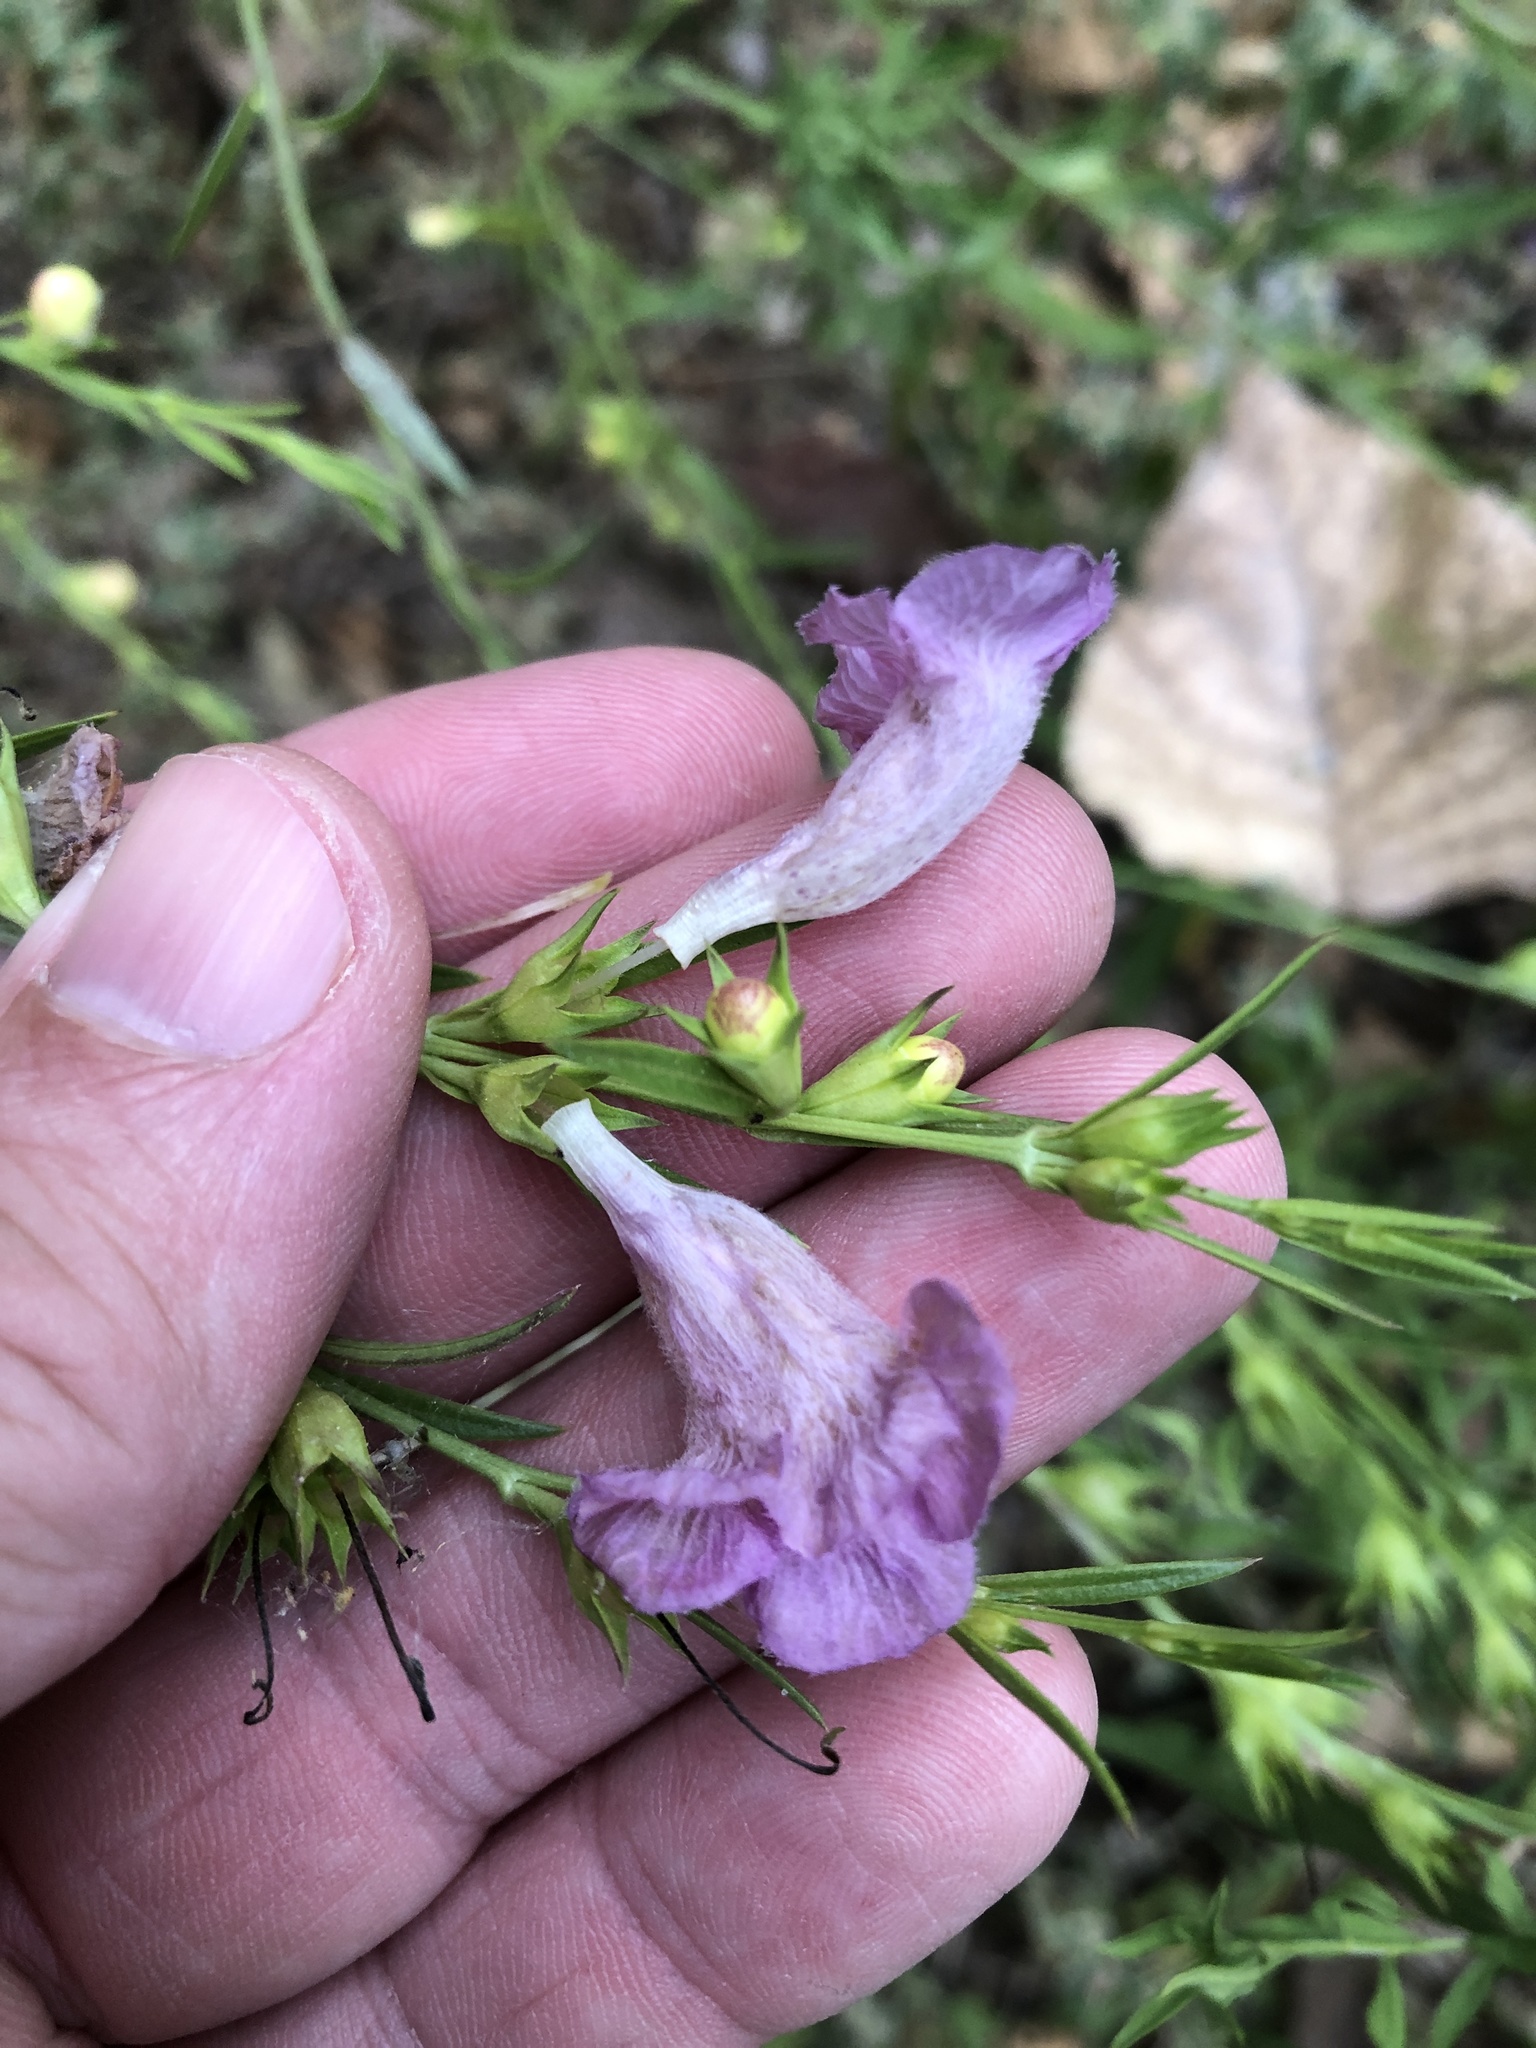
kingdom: Plantae
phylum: Tracheophyta
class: Magnoliopsida
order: Lamiales
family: Orobanchaceae
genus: Agalinis
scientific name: Agalinis heterophylla
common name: Prairie agalinis
